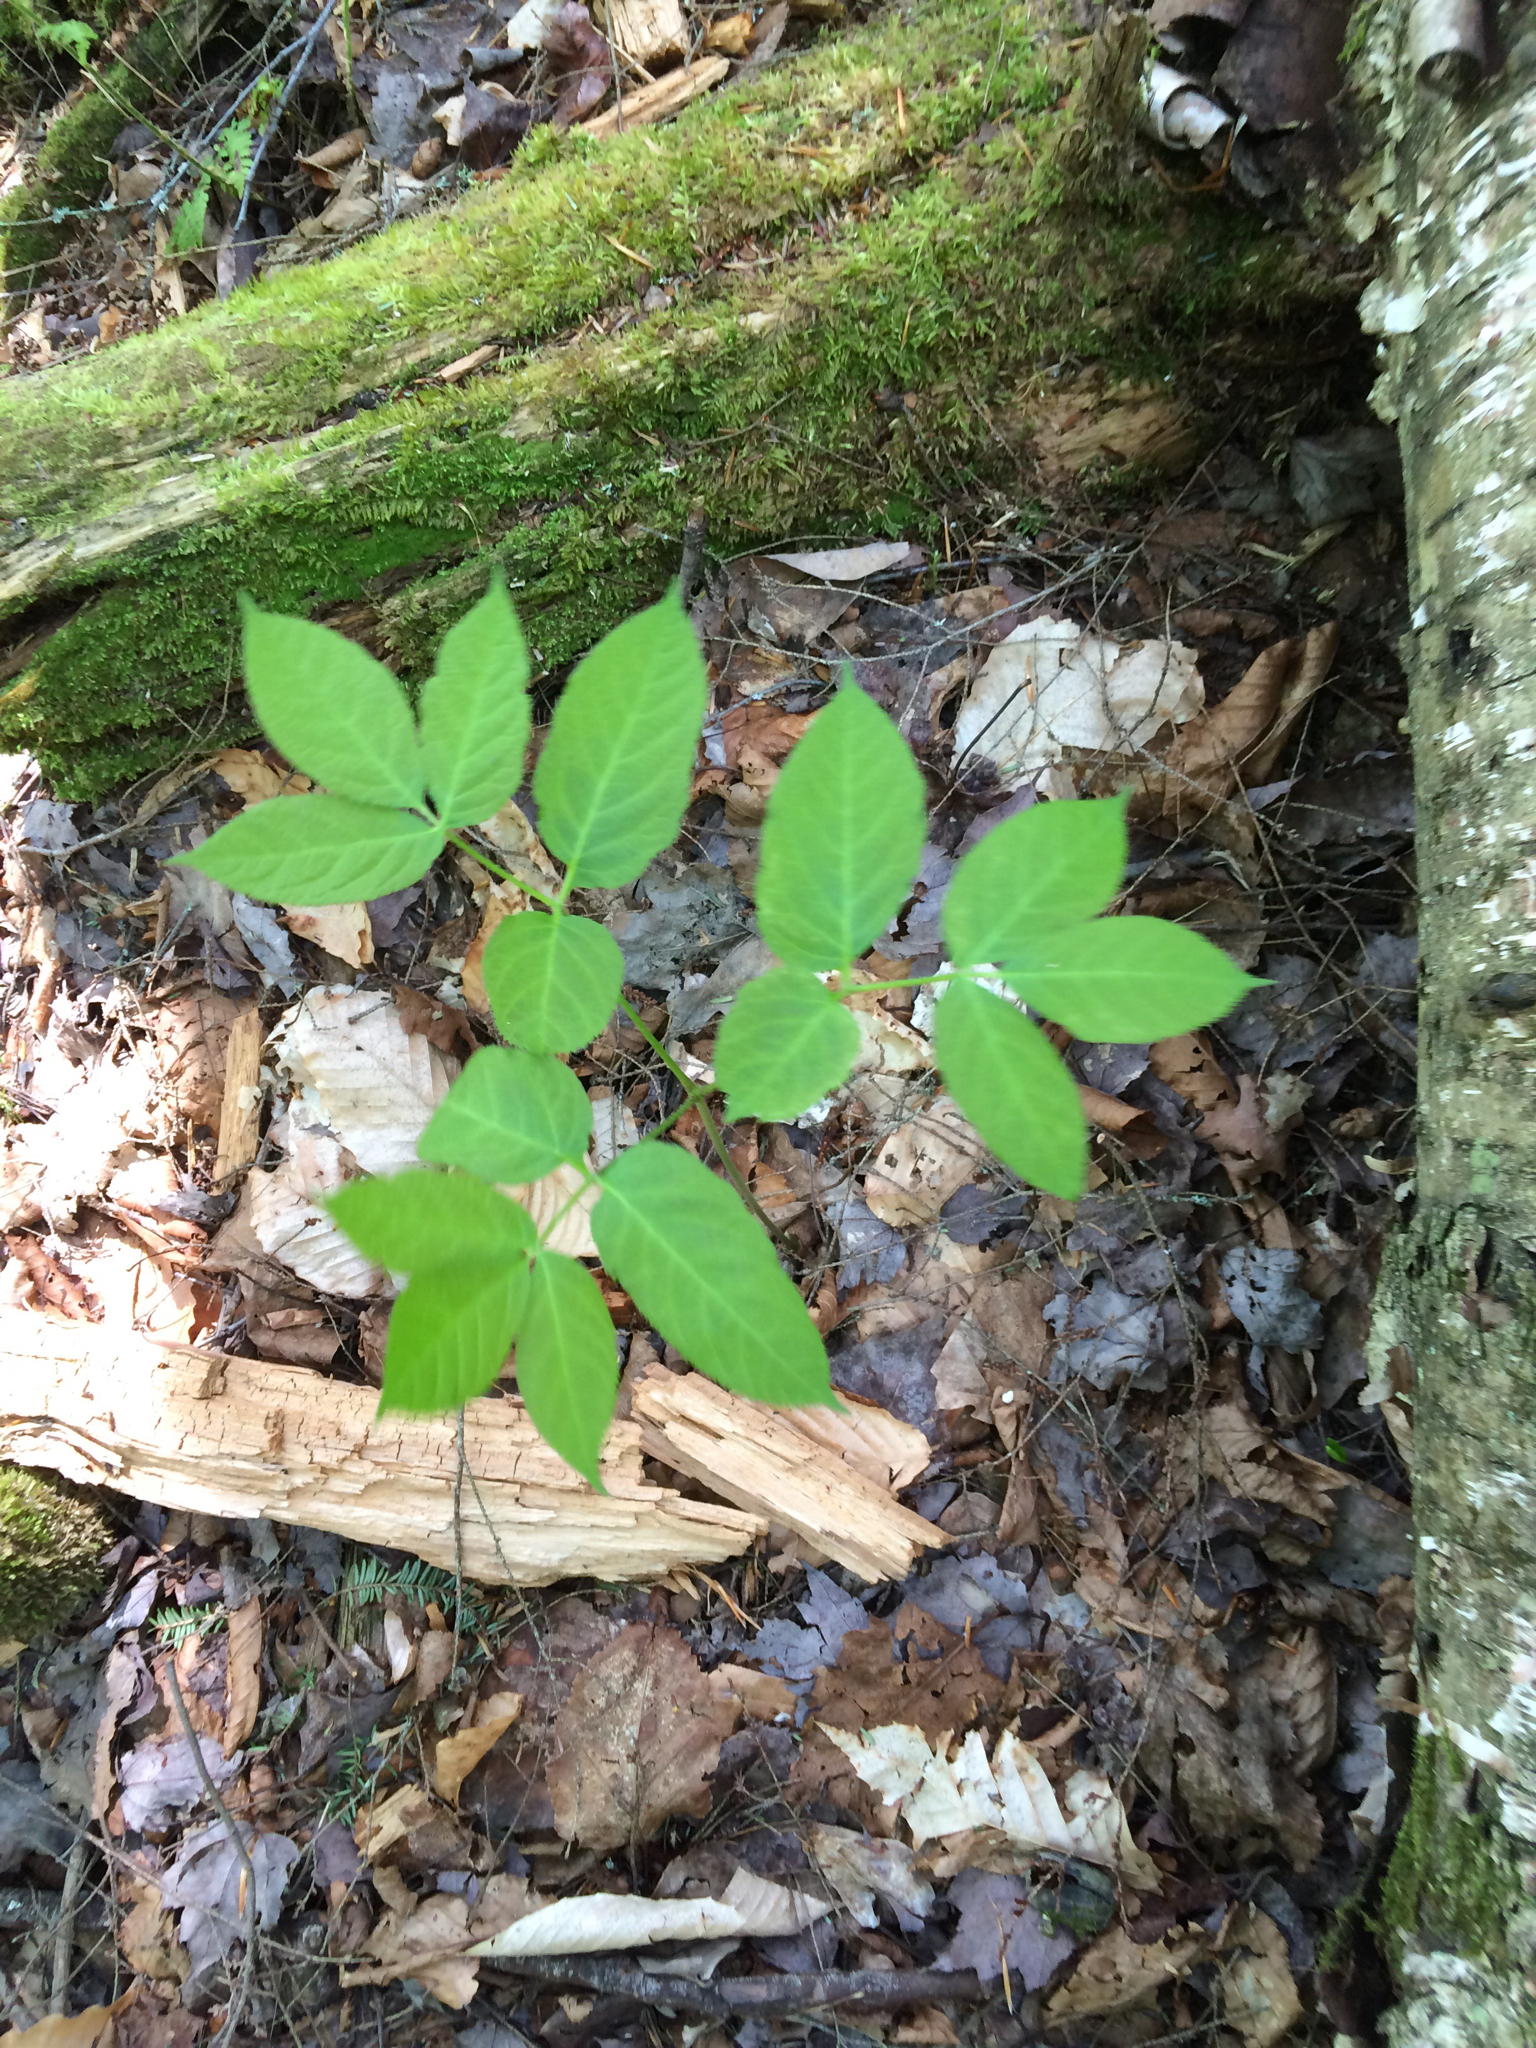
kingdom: Plantae
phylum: Tracheophyta
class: Magnoliopsida
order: Apiales
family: Araliaceae
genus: Aralia
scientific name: Aralia nudicaulis
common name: Wild sarsaparilla
